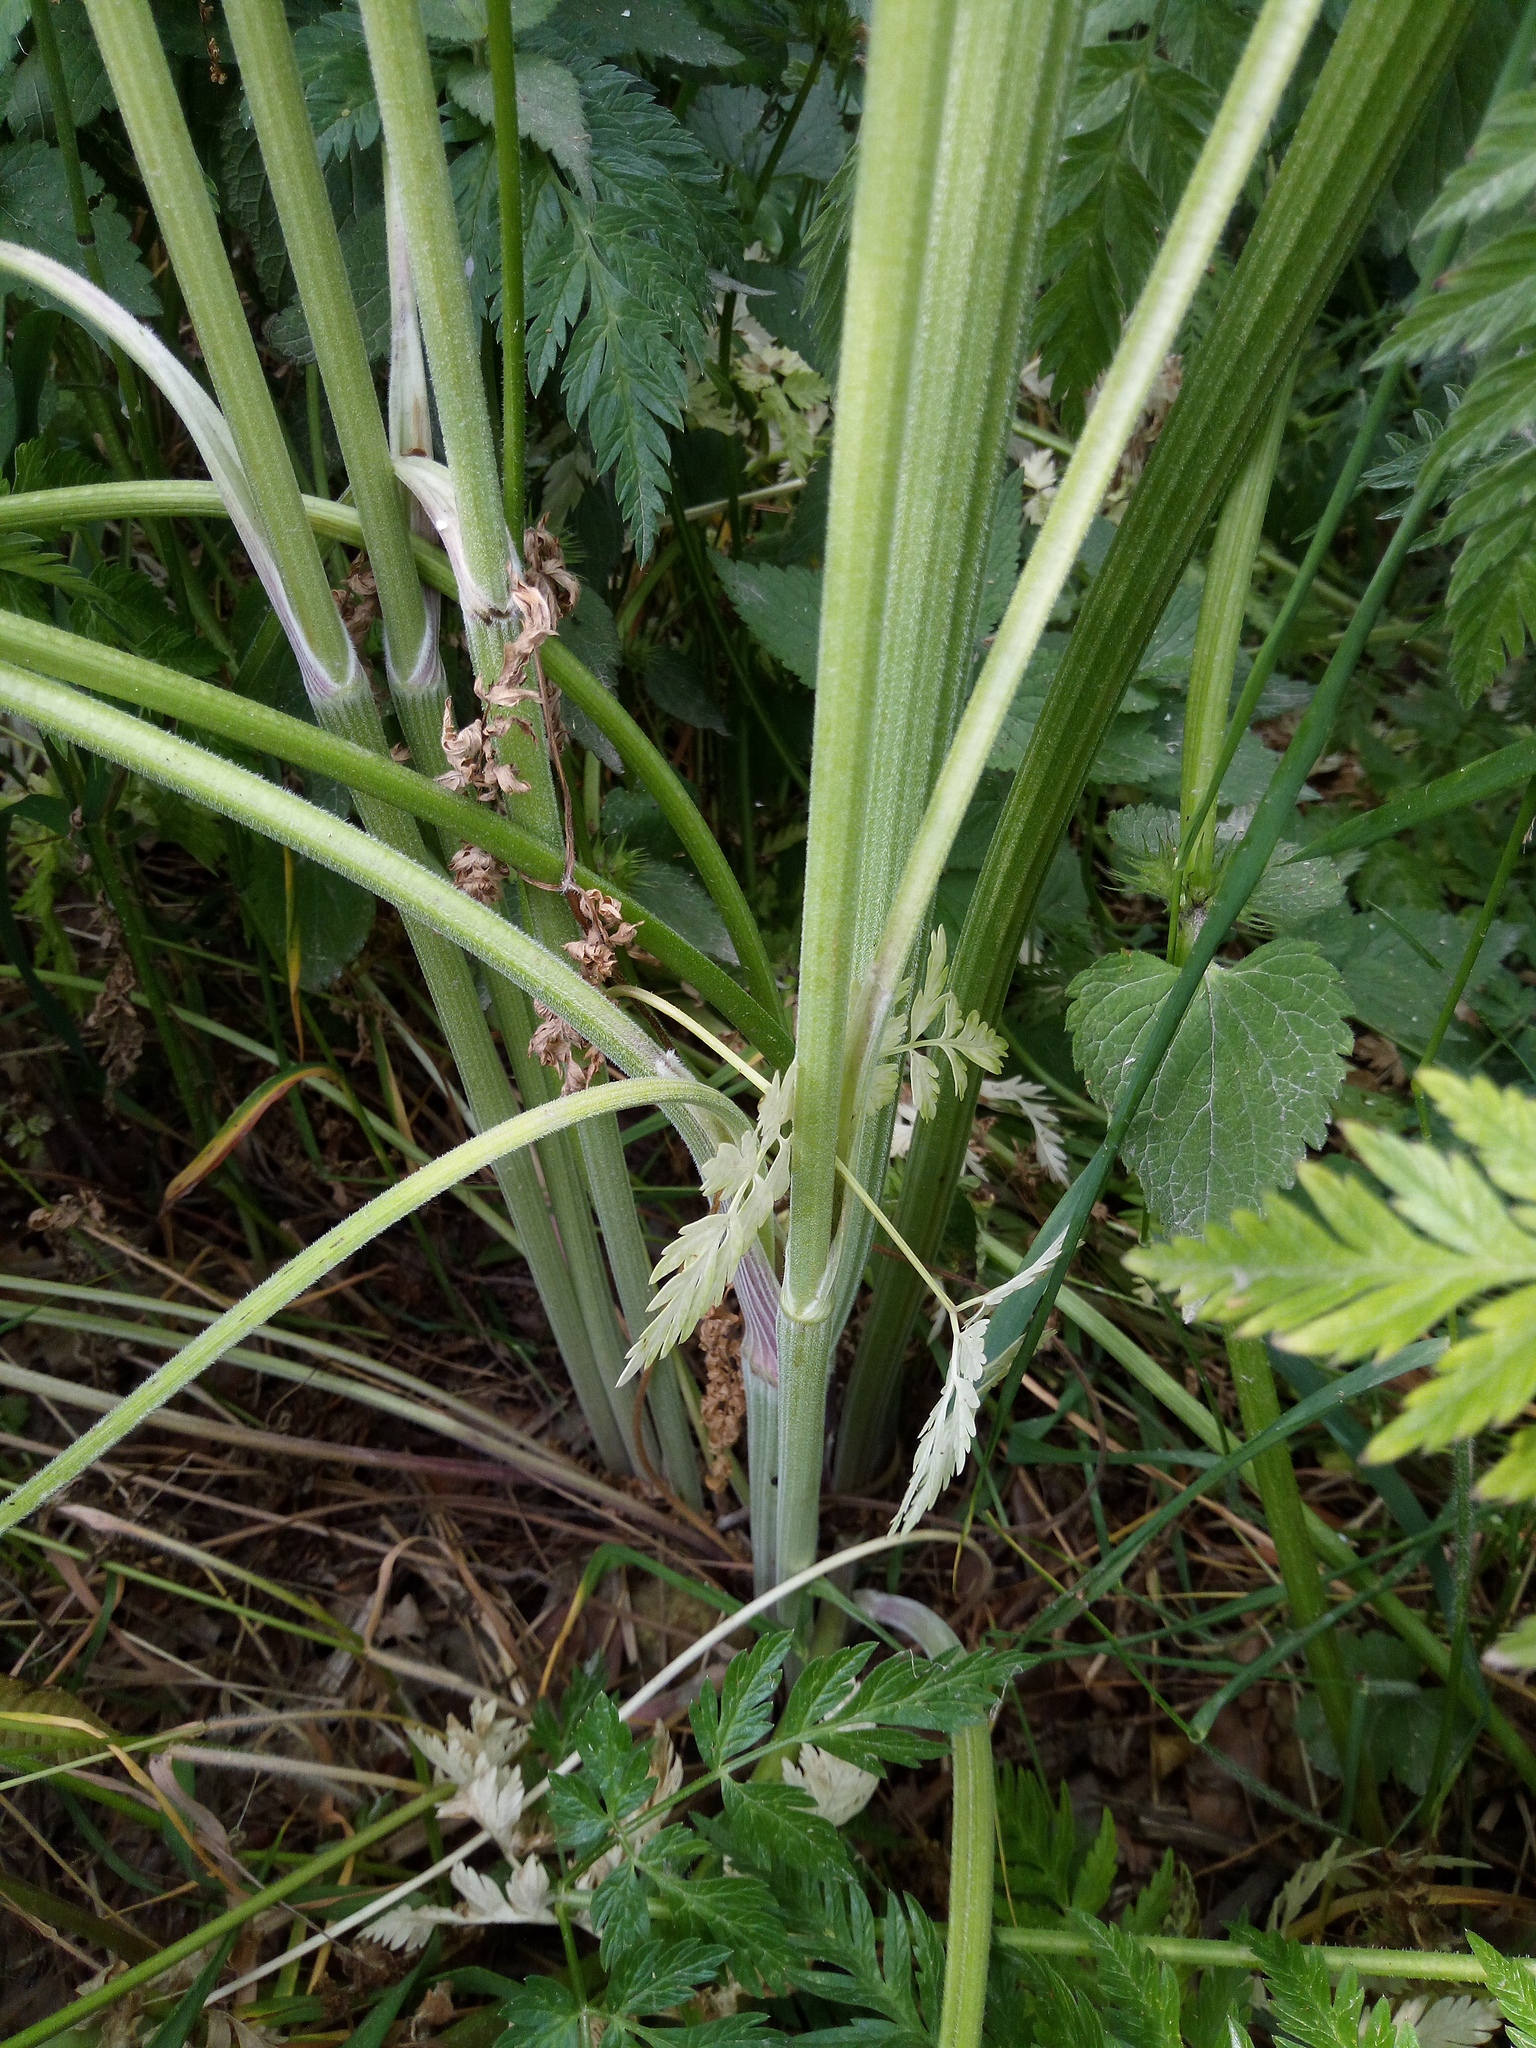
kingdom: Plantae
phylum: Tracheophyta
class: Magnoliopsida
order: Apiales
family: Apiaceae
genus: Anthriscus
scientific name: Anthriscus sylvestris
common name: Cow parsley
